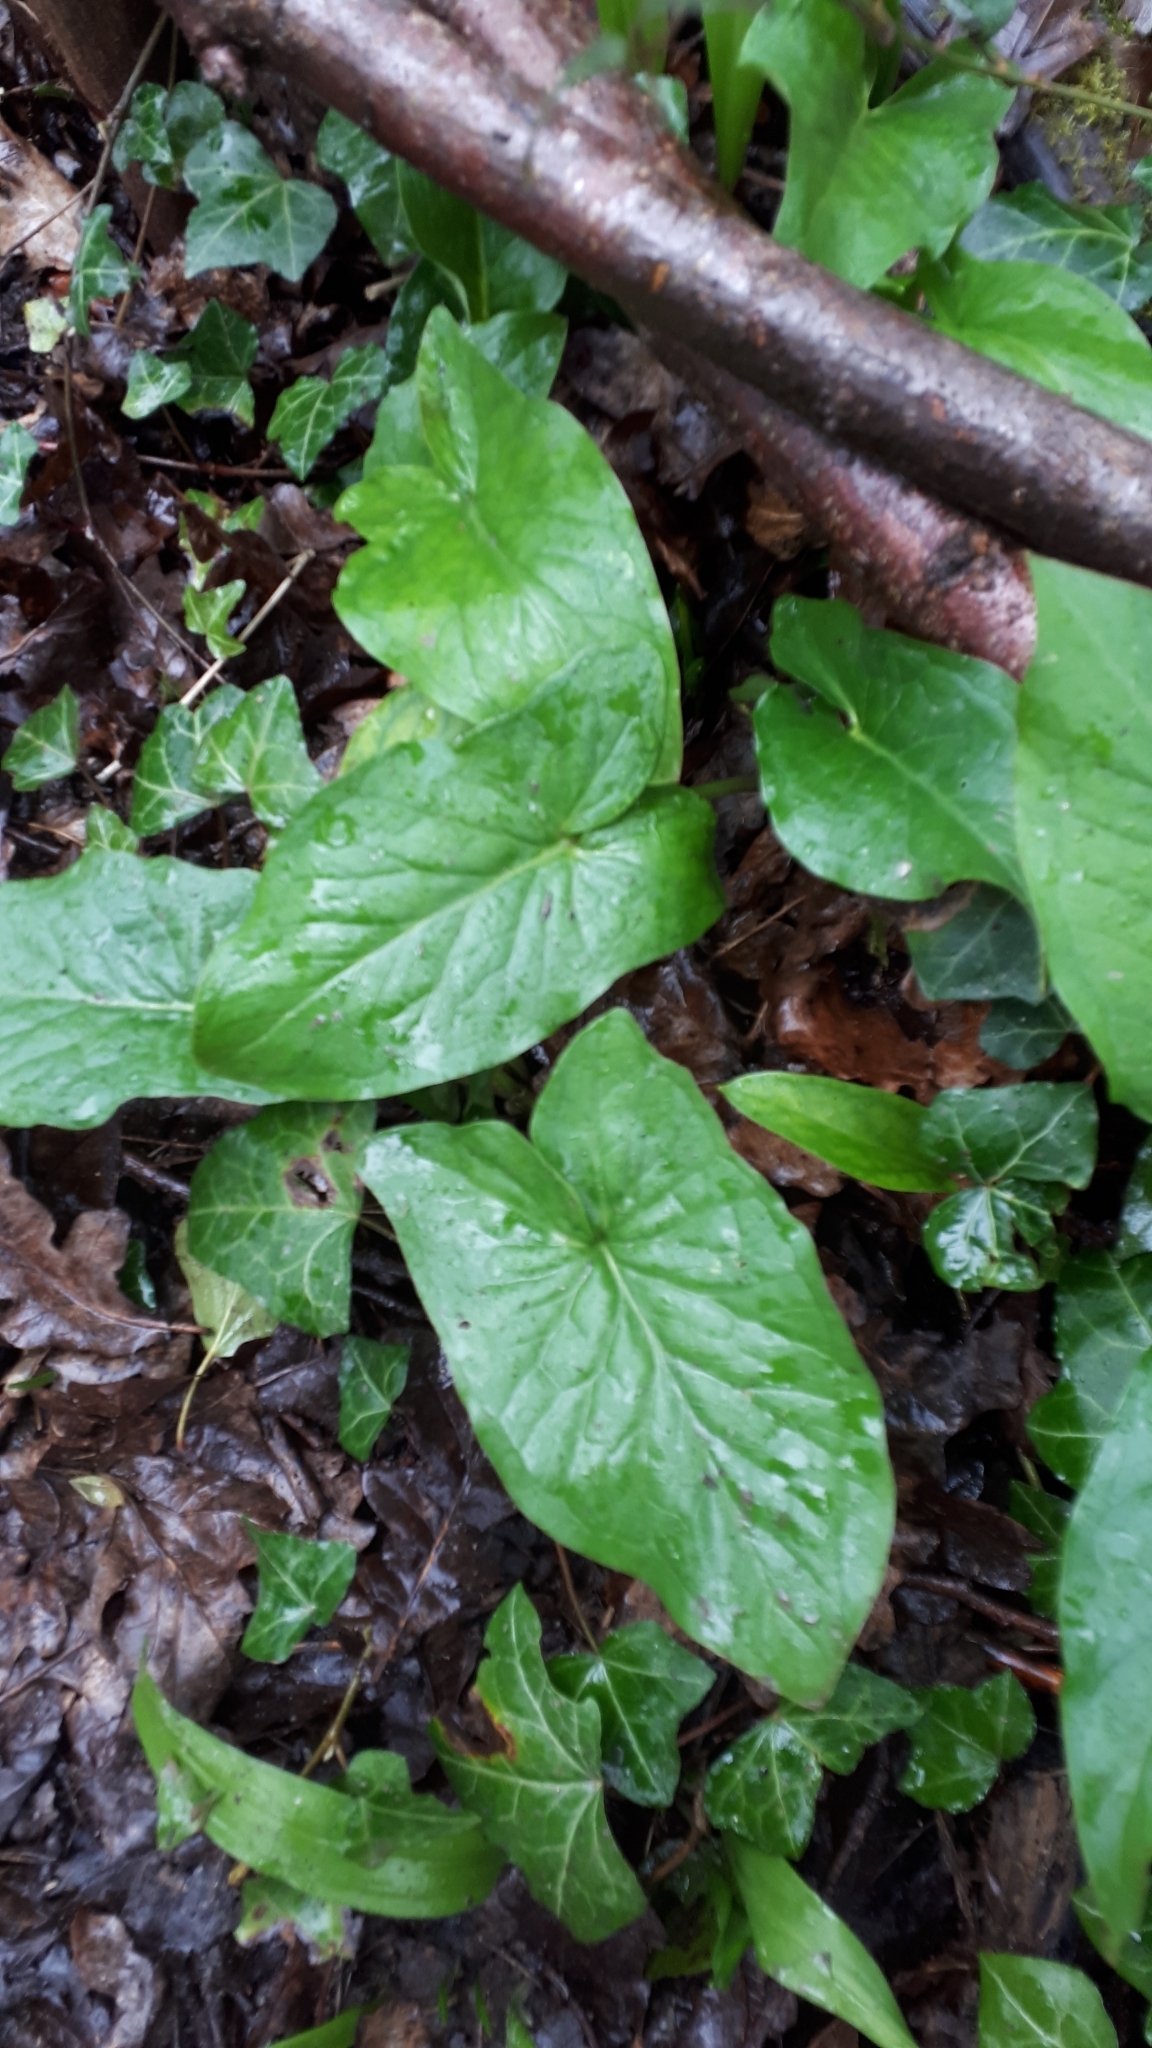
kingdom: Plantae
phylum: Tracheophyta
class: Liliopsida
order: Alismatales
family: Araceae
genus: Arum
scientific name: Arum maculatum
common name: Lords-and-ladies
